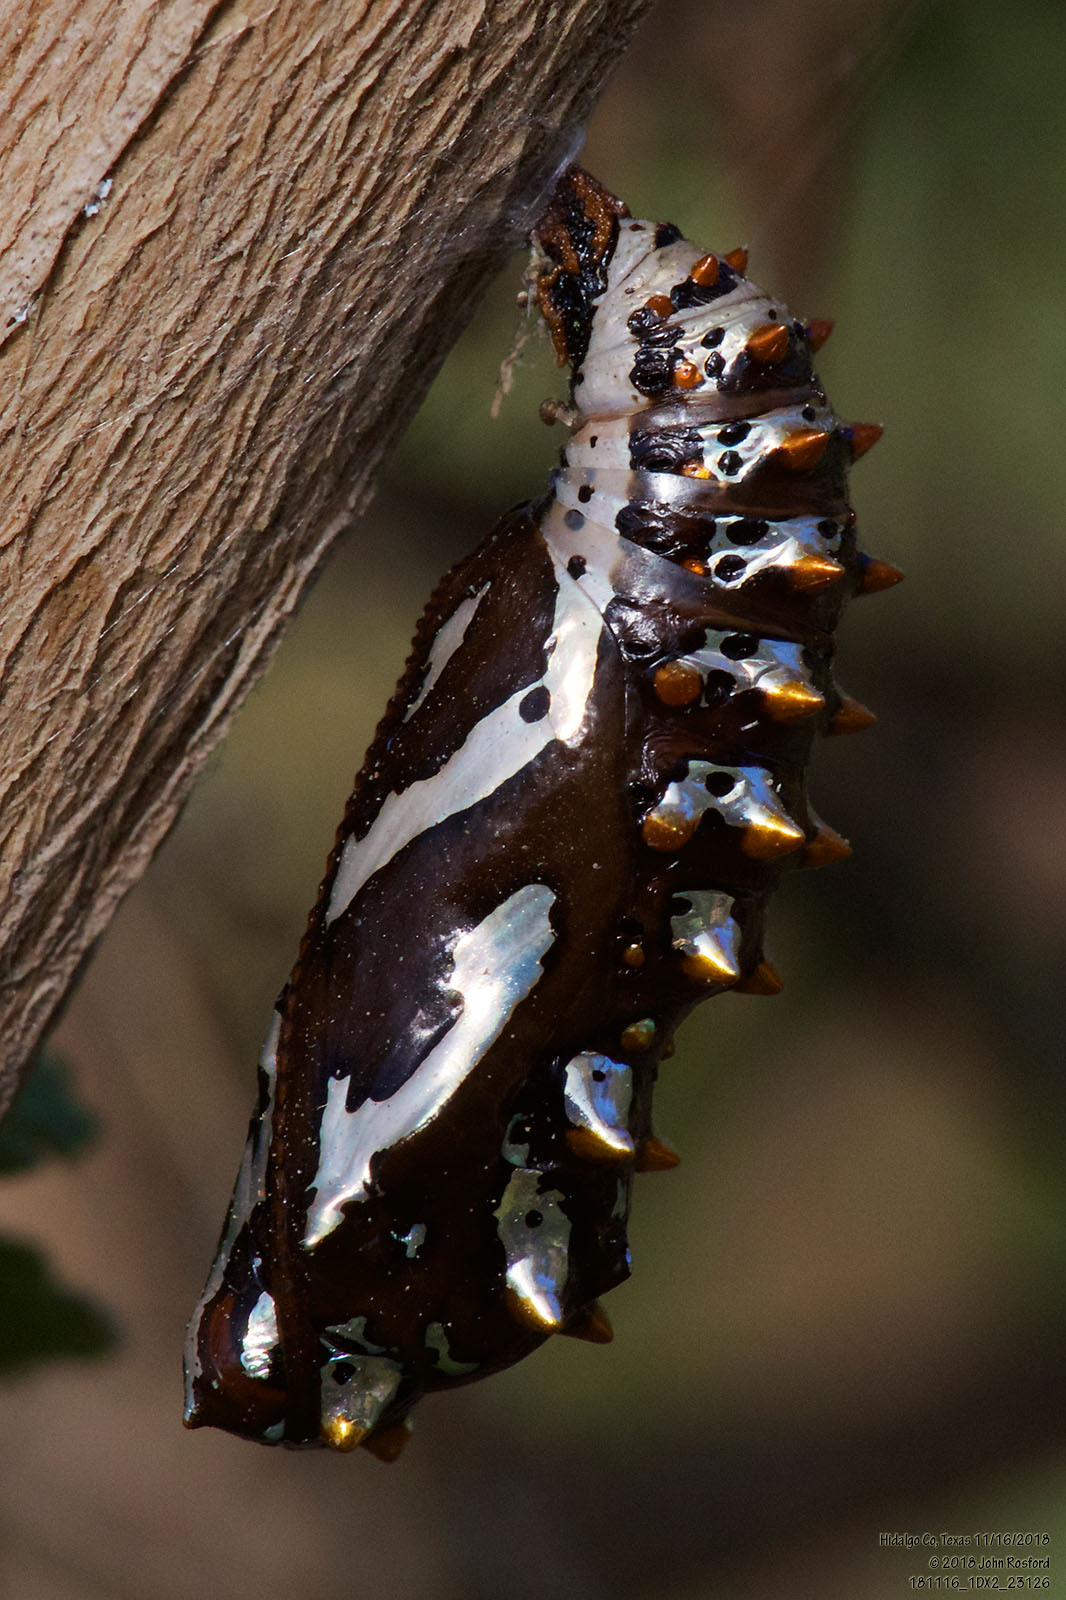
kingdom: Animalia
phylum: Arthropoda
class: Insecta
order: Lepidoptera
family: Nymphalidae
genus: Euptoieta
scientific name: Euptoieta hegesia
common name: Mexican fritillary
